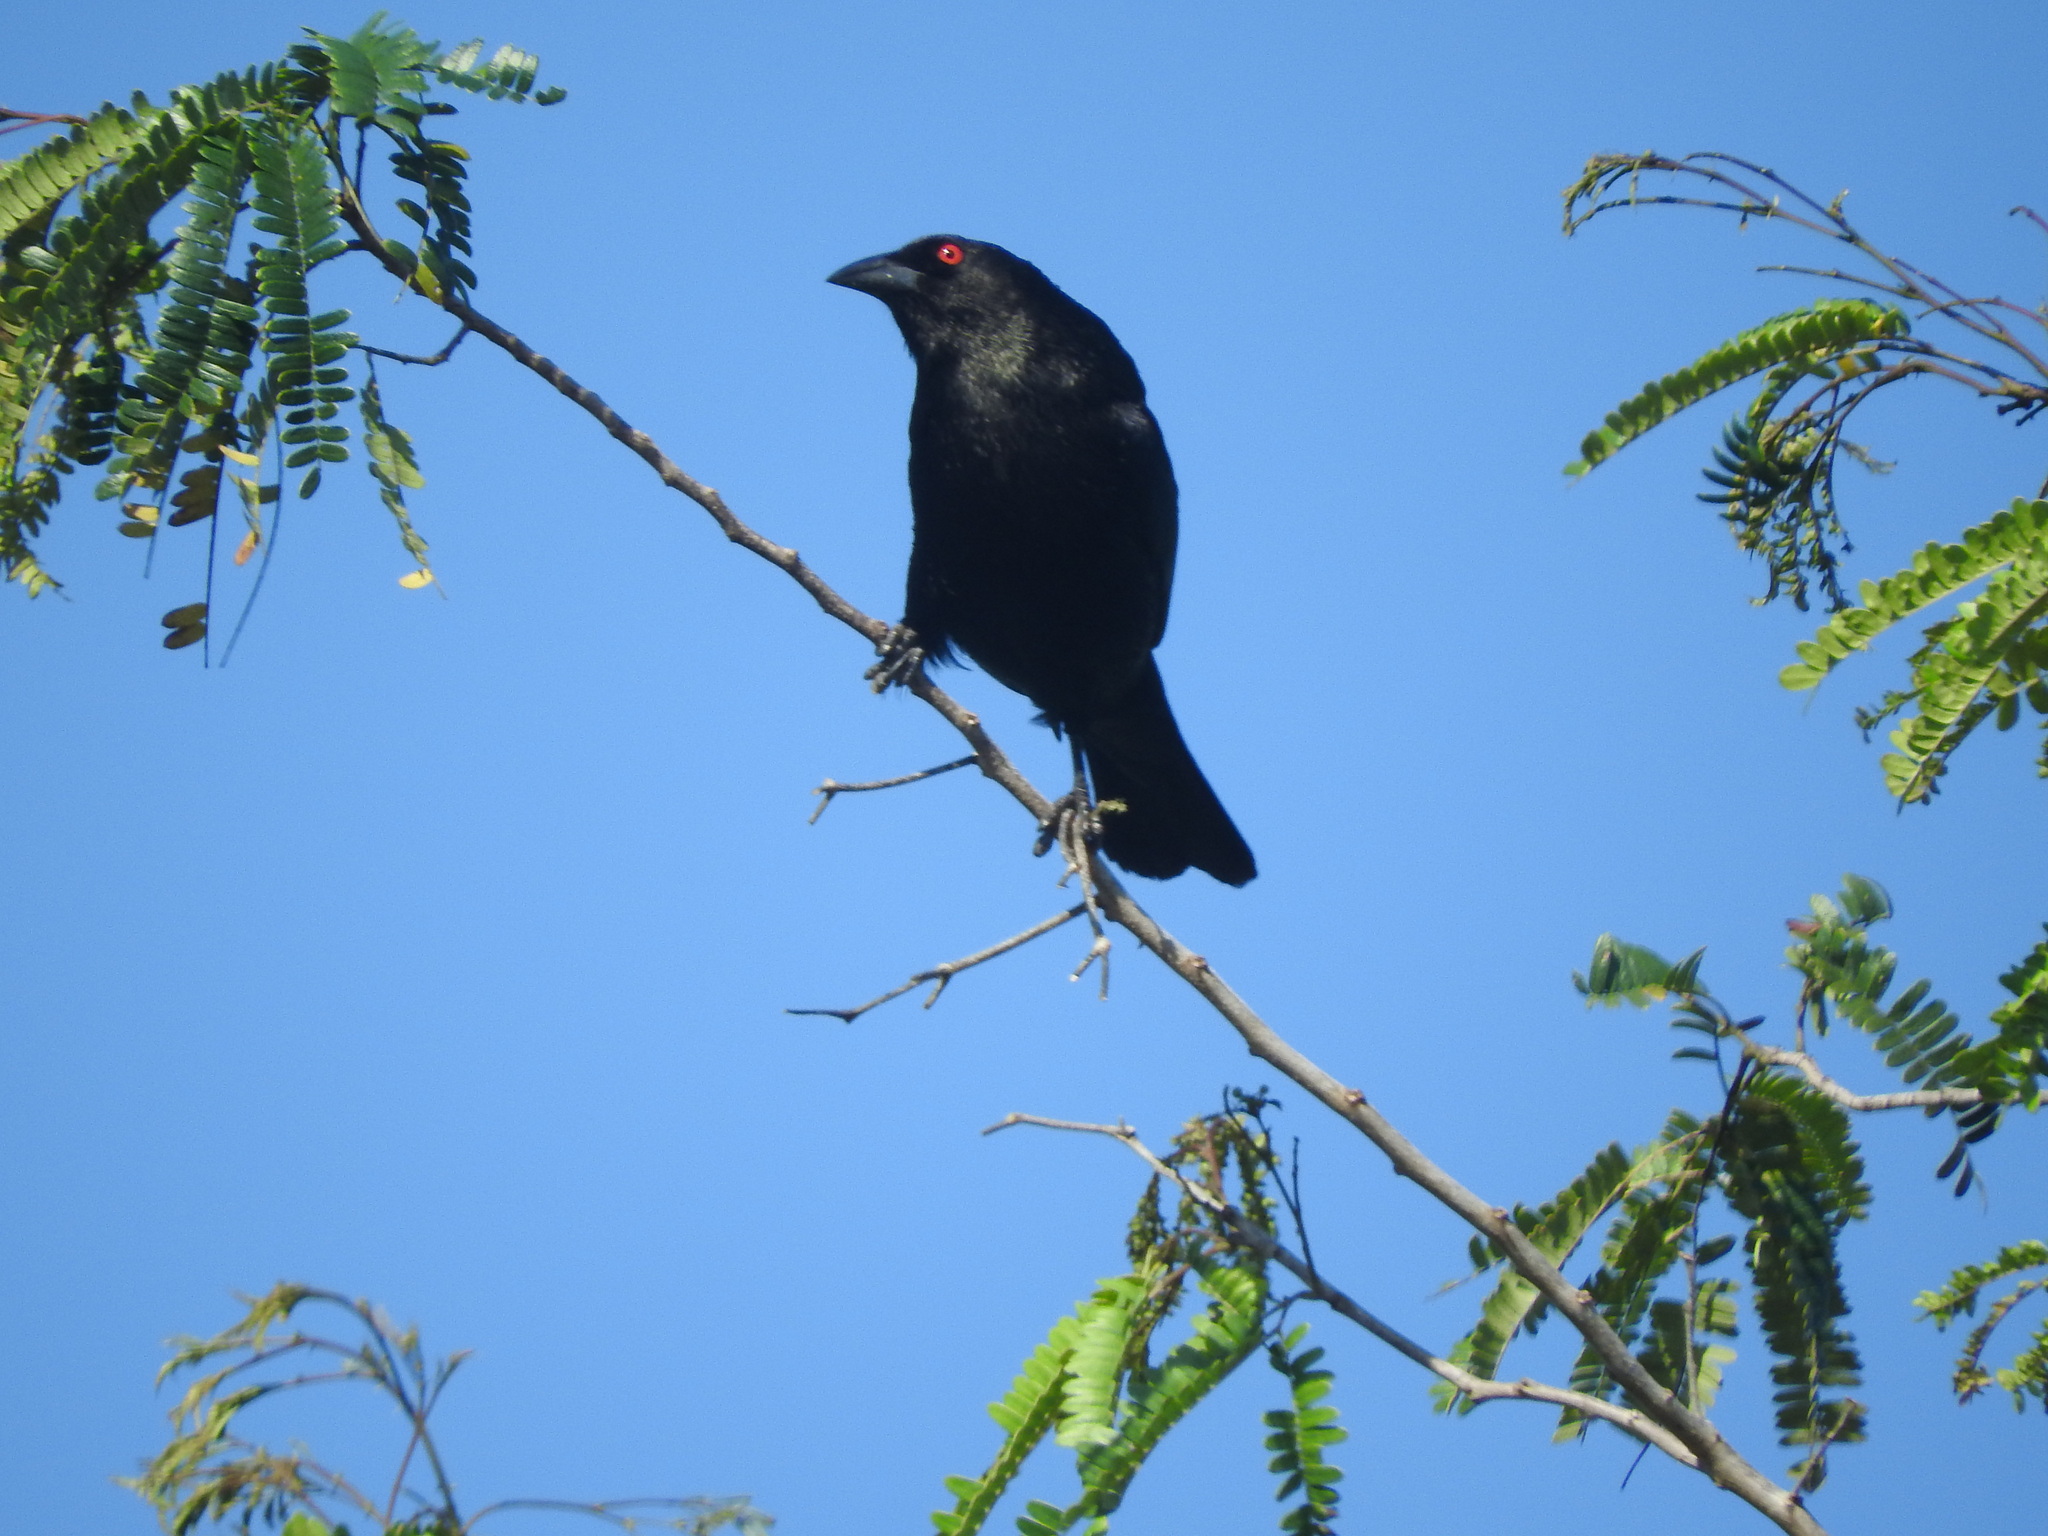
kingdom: Animalia
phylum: Chordata
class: Aves
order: Passeriformes
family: Icteridae
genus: Molothrus
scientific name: Molothrus aeneus
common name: Bronzed cowbird
